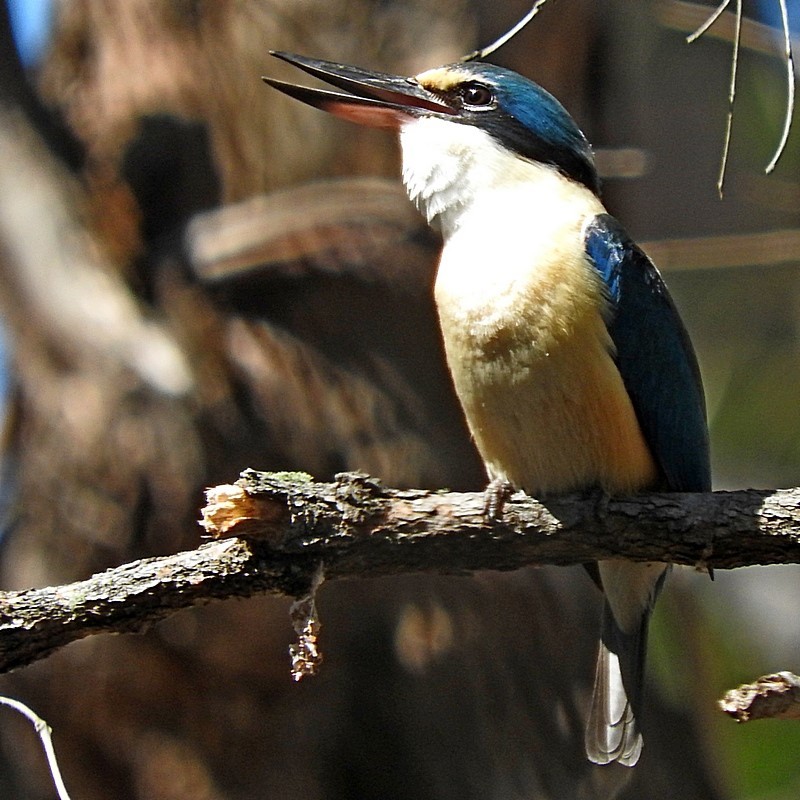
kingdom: Animalia
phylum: Chordata
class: Aves
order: Coraciiformes
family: Alcedinidae
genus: Todiramphus
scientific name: Todiramphus sanctus
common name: Sacred kingfisher
